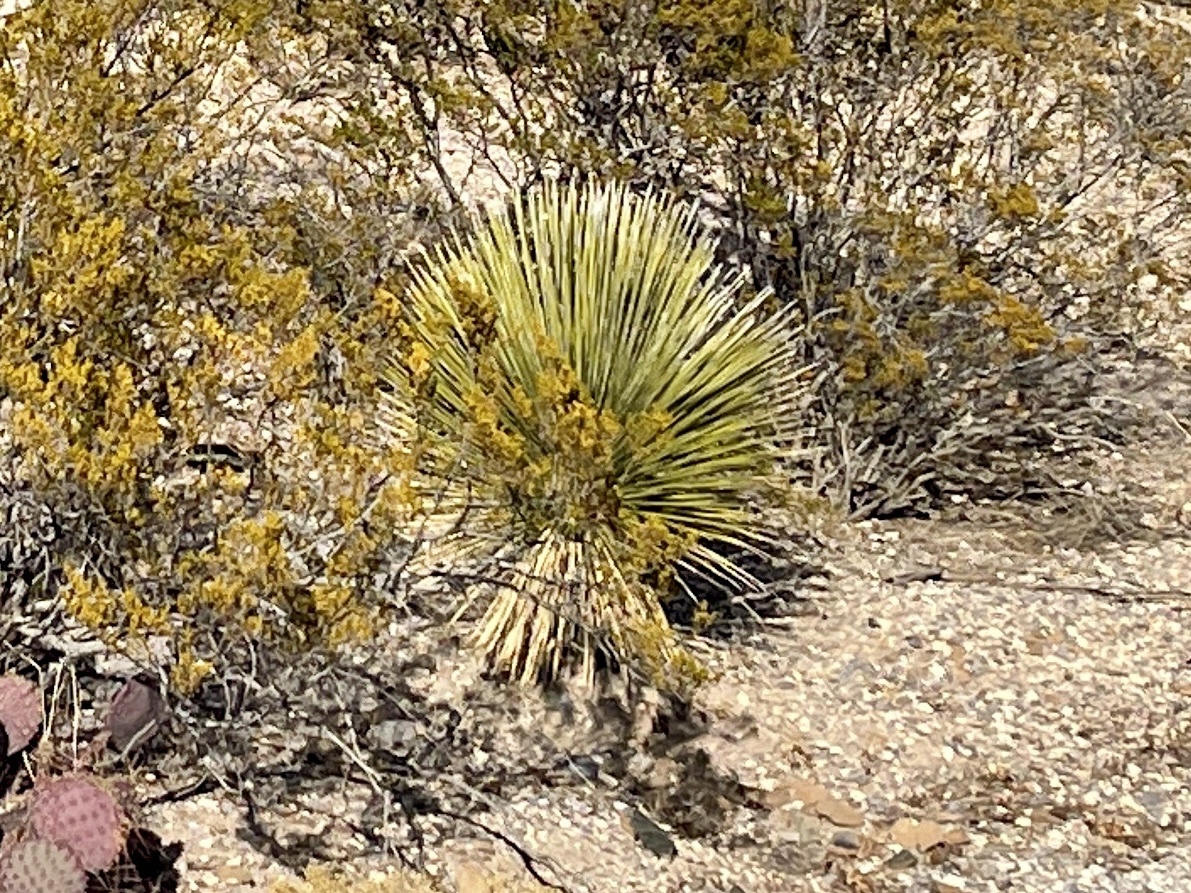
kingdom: Plantae
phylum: Tracheophyta
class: Liliopsida
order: Asparagales
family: Asparagaceae
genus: Yucca
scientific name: Yucca elata
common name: Palmella
